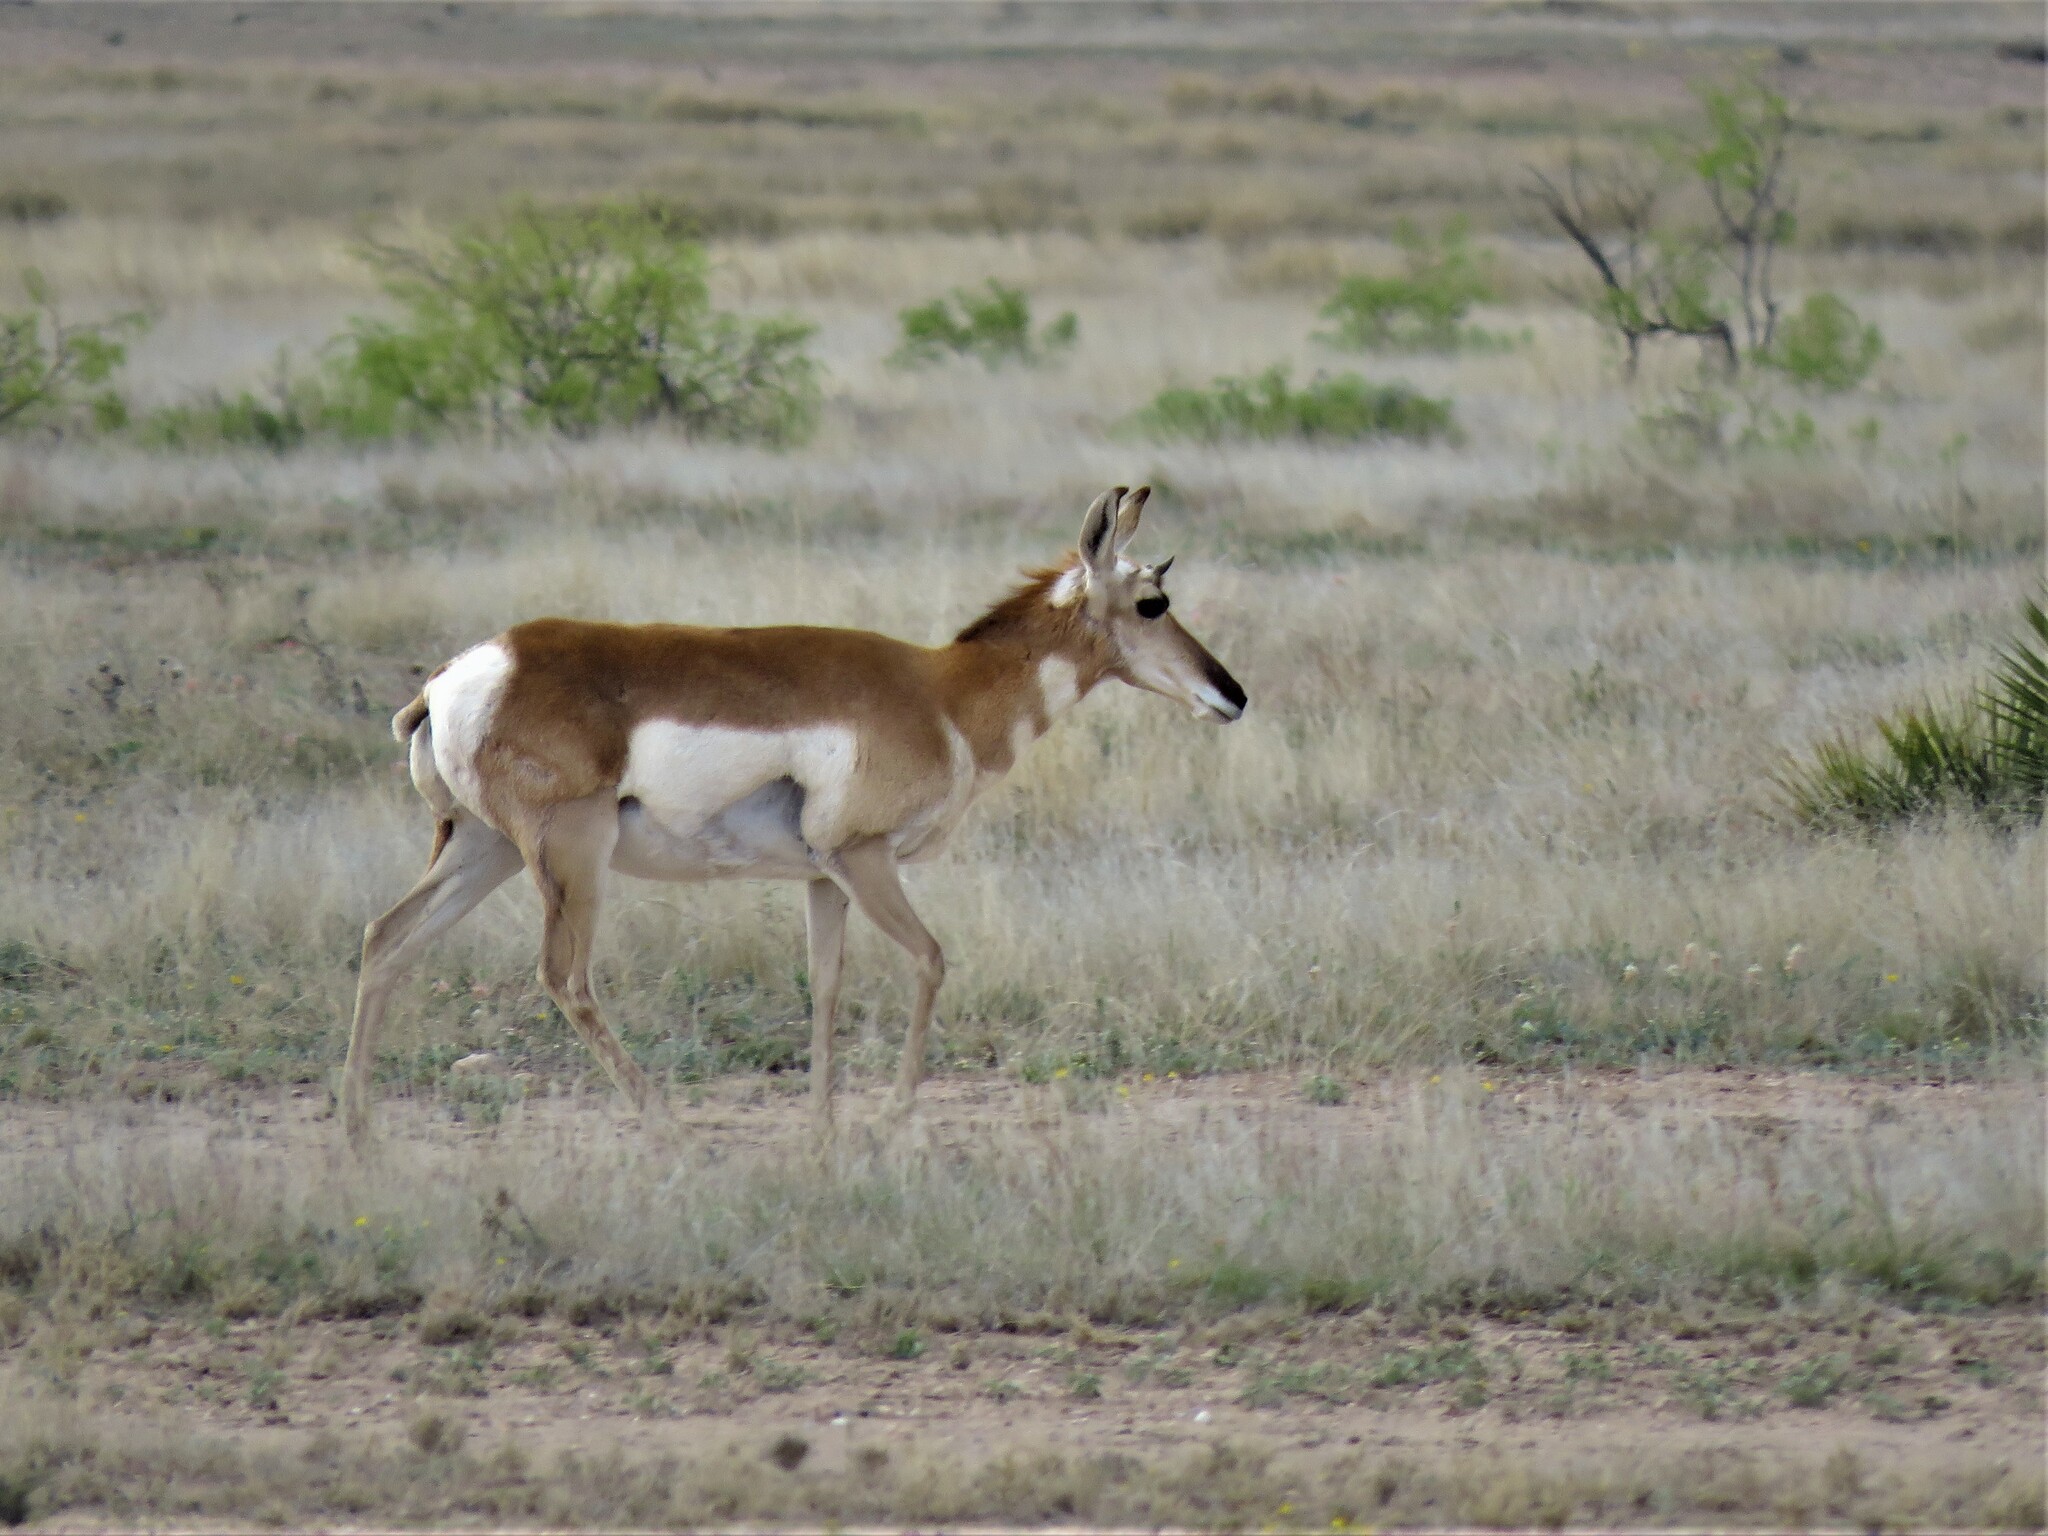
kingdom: Animalia
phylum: Chordata
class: Mammalia
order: Artiodactyla
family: Antilocapridae
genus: Antilocapra
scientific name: Antilocapra americana
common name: Pronghorn
